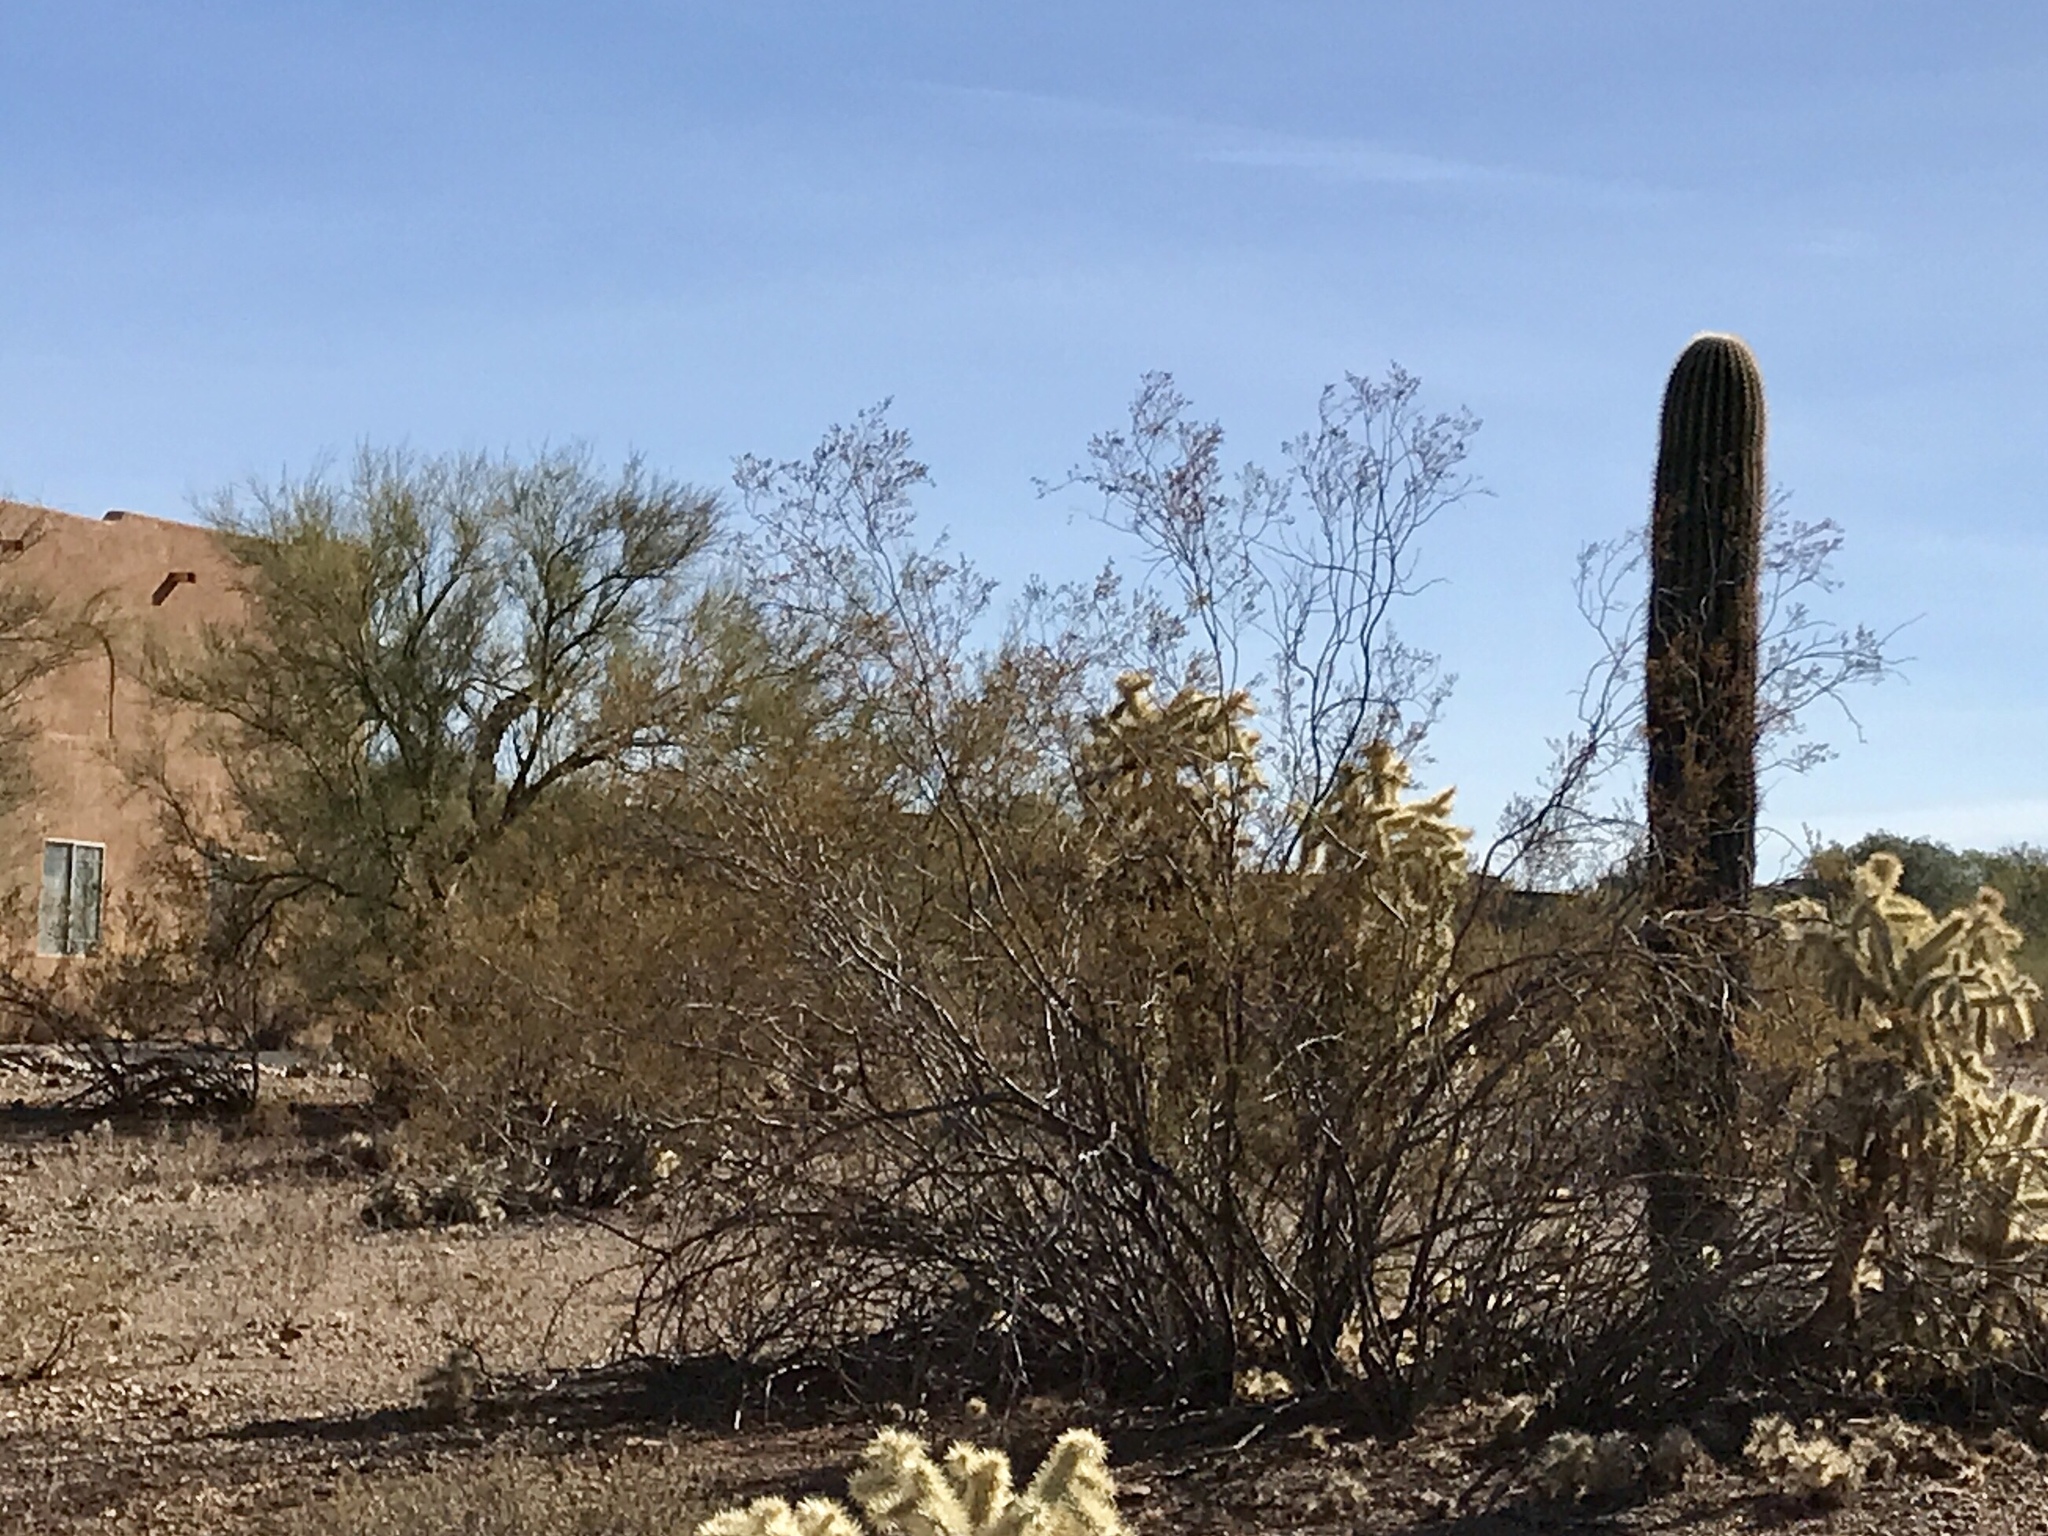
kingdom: Plantae
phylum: Tracheophyta
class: Magnoliopsida
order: Zygophyllales
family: Zygophyllaceae
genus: Larrea
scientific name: Larrea tridentata
